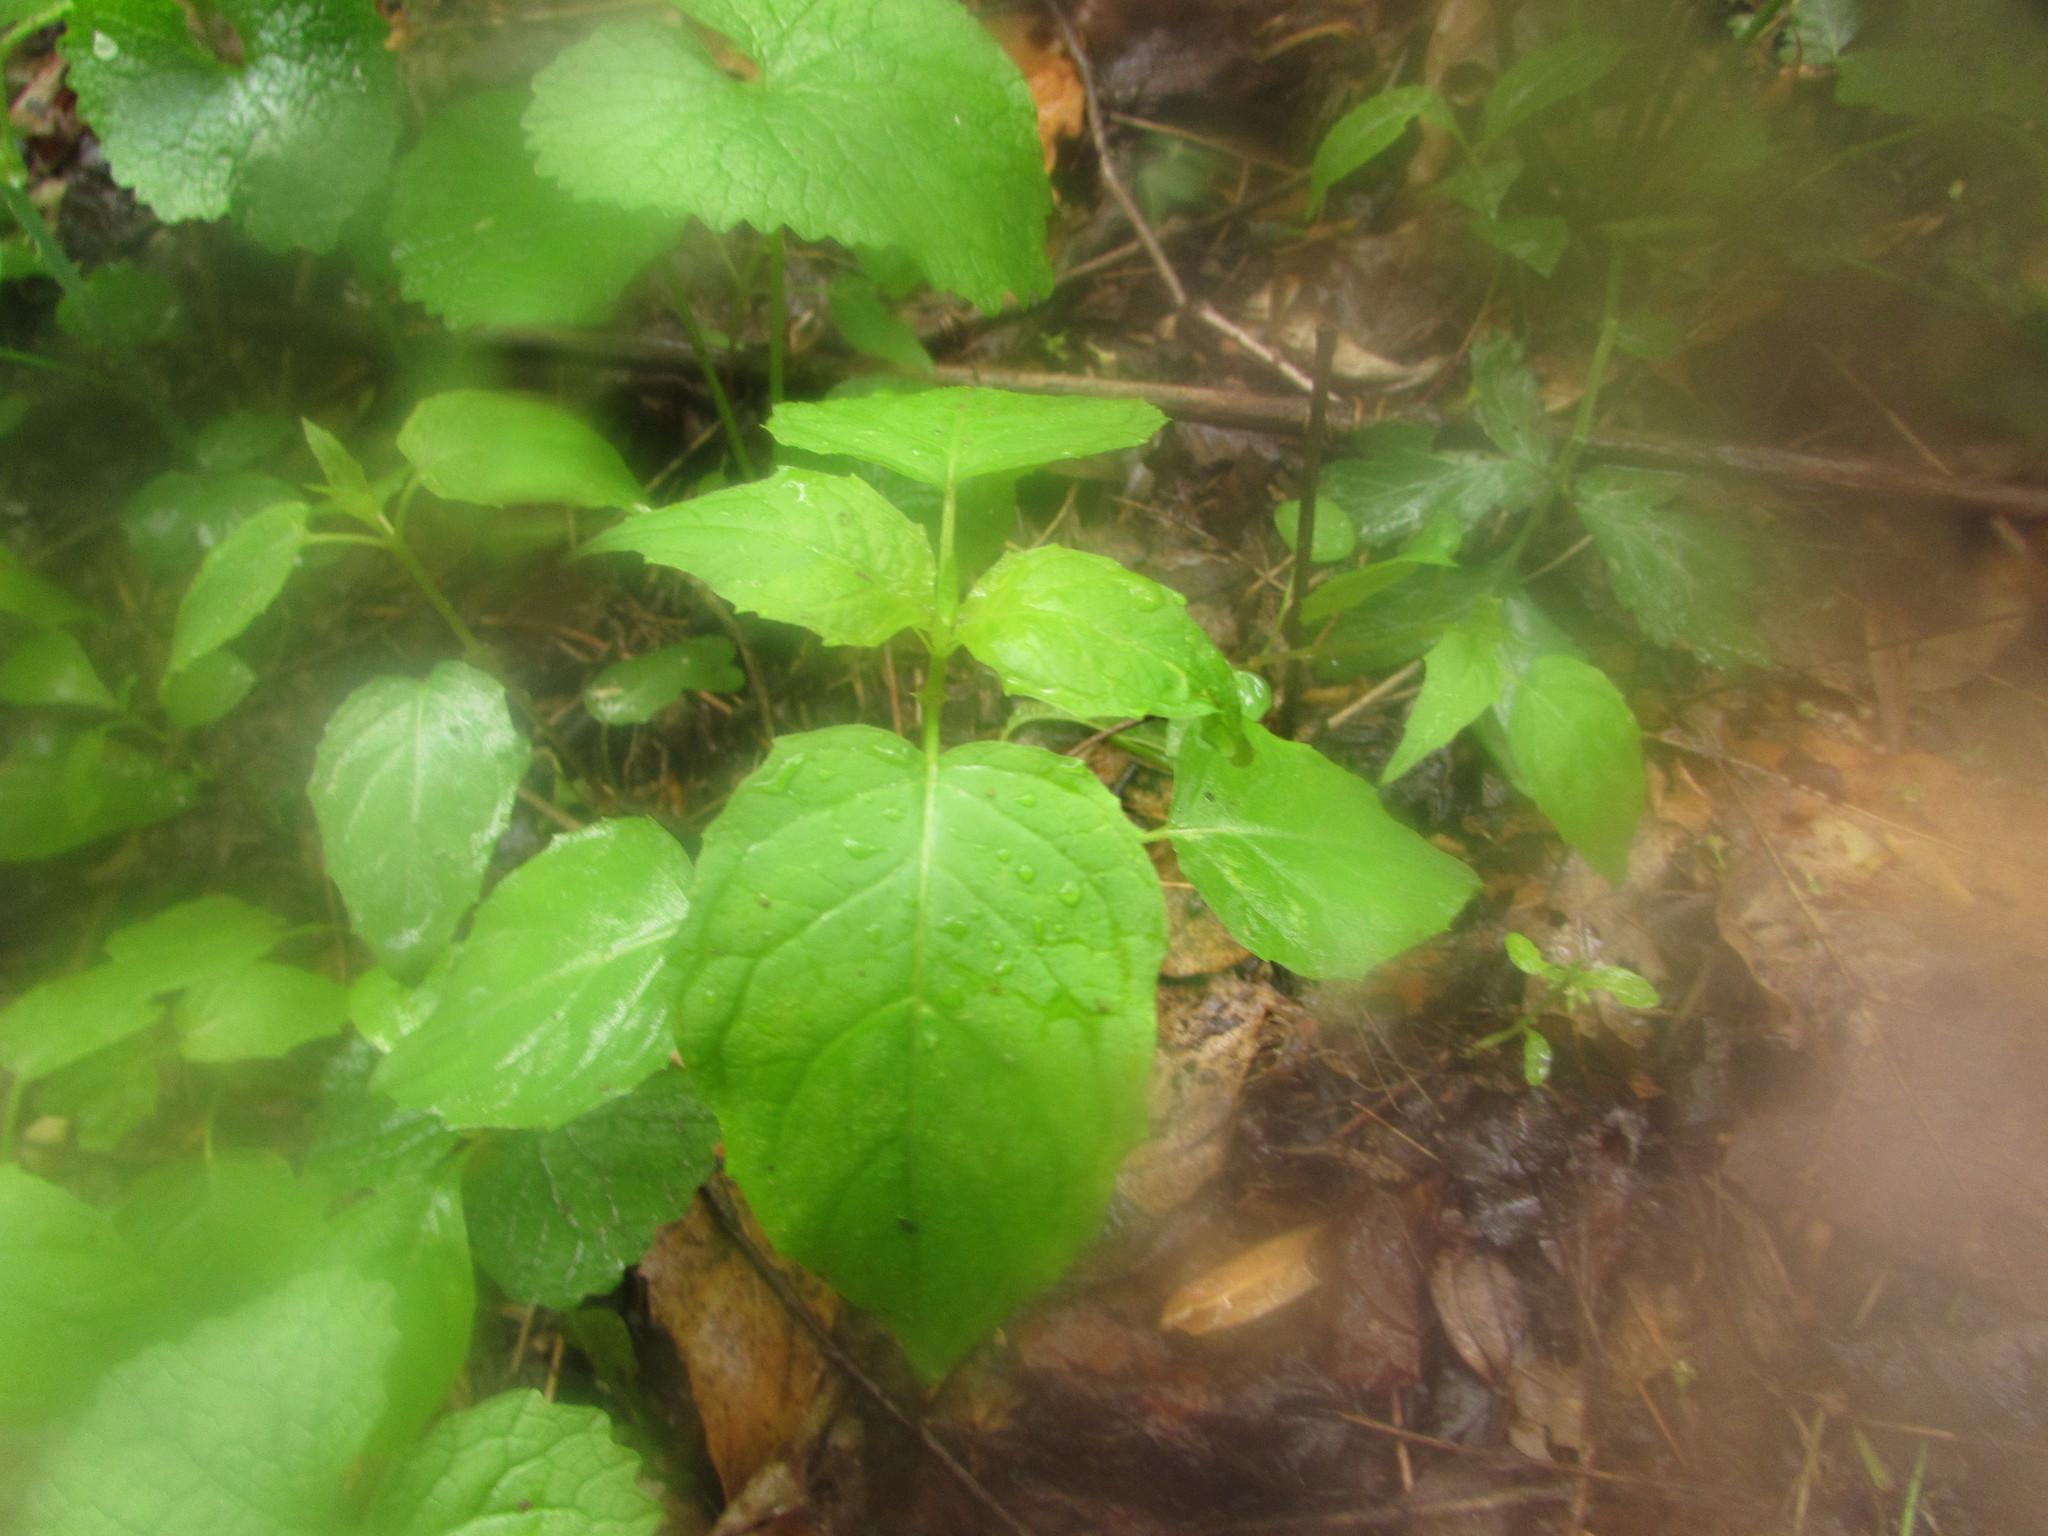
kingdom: Plantae
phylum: Tracheophyta
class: Magnoliopsida
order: Myrtales
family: Onagraceae
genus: Circaea
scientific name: Circaea canadensis
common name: Broad-leaved enchanter's nightshade
